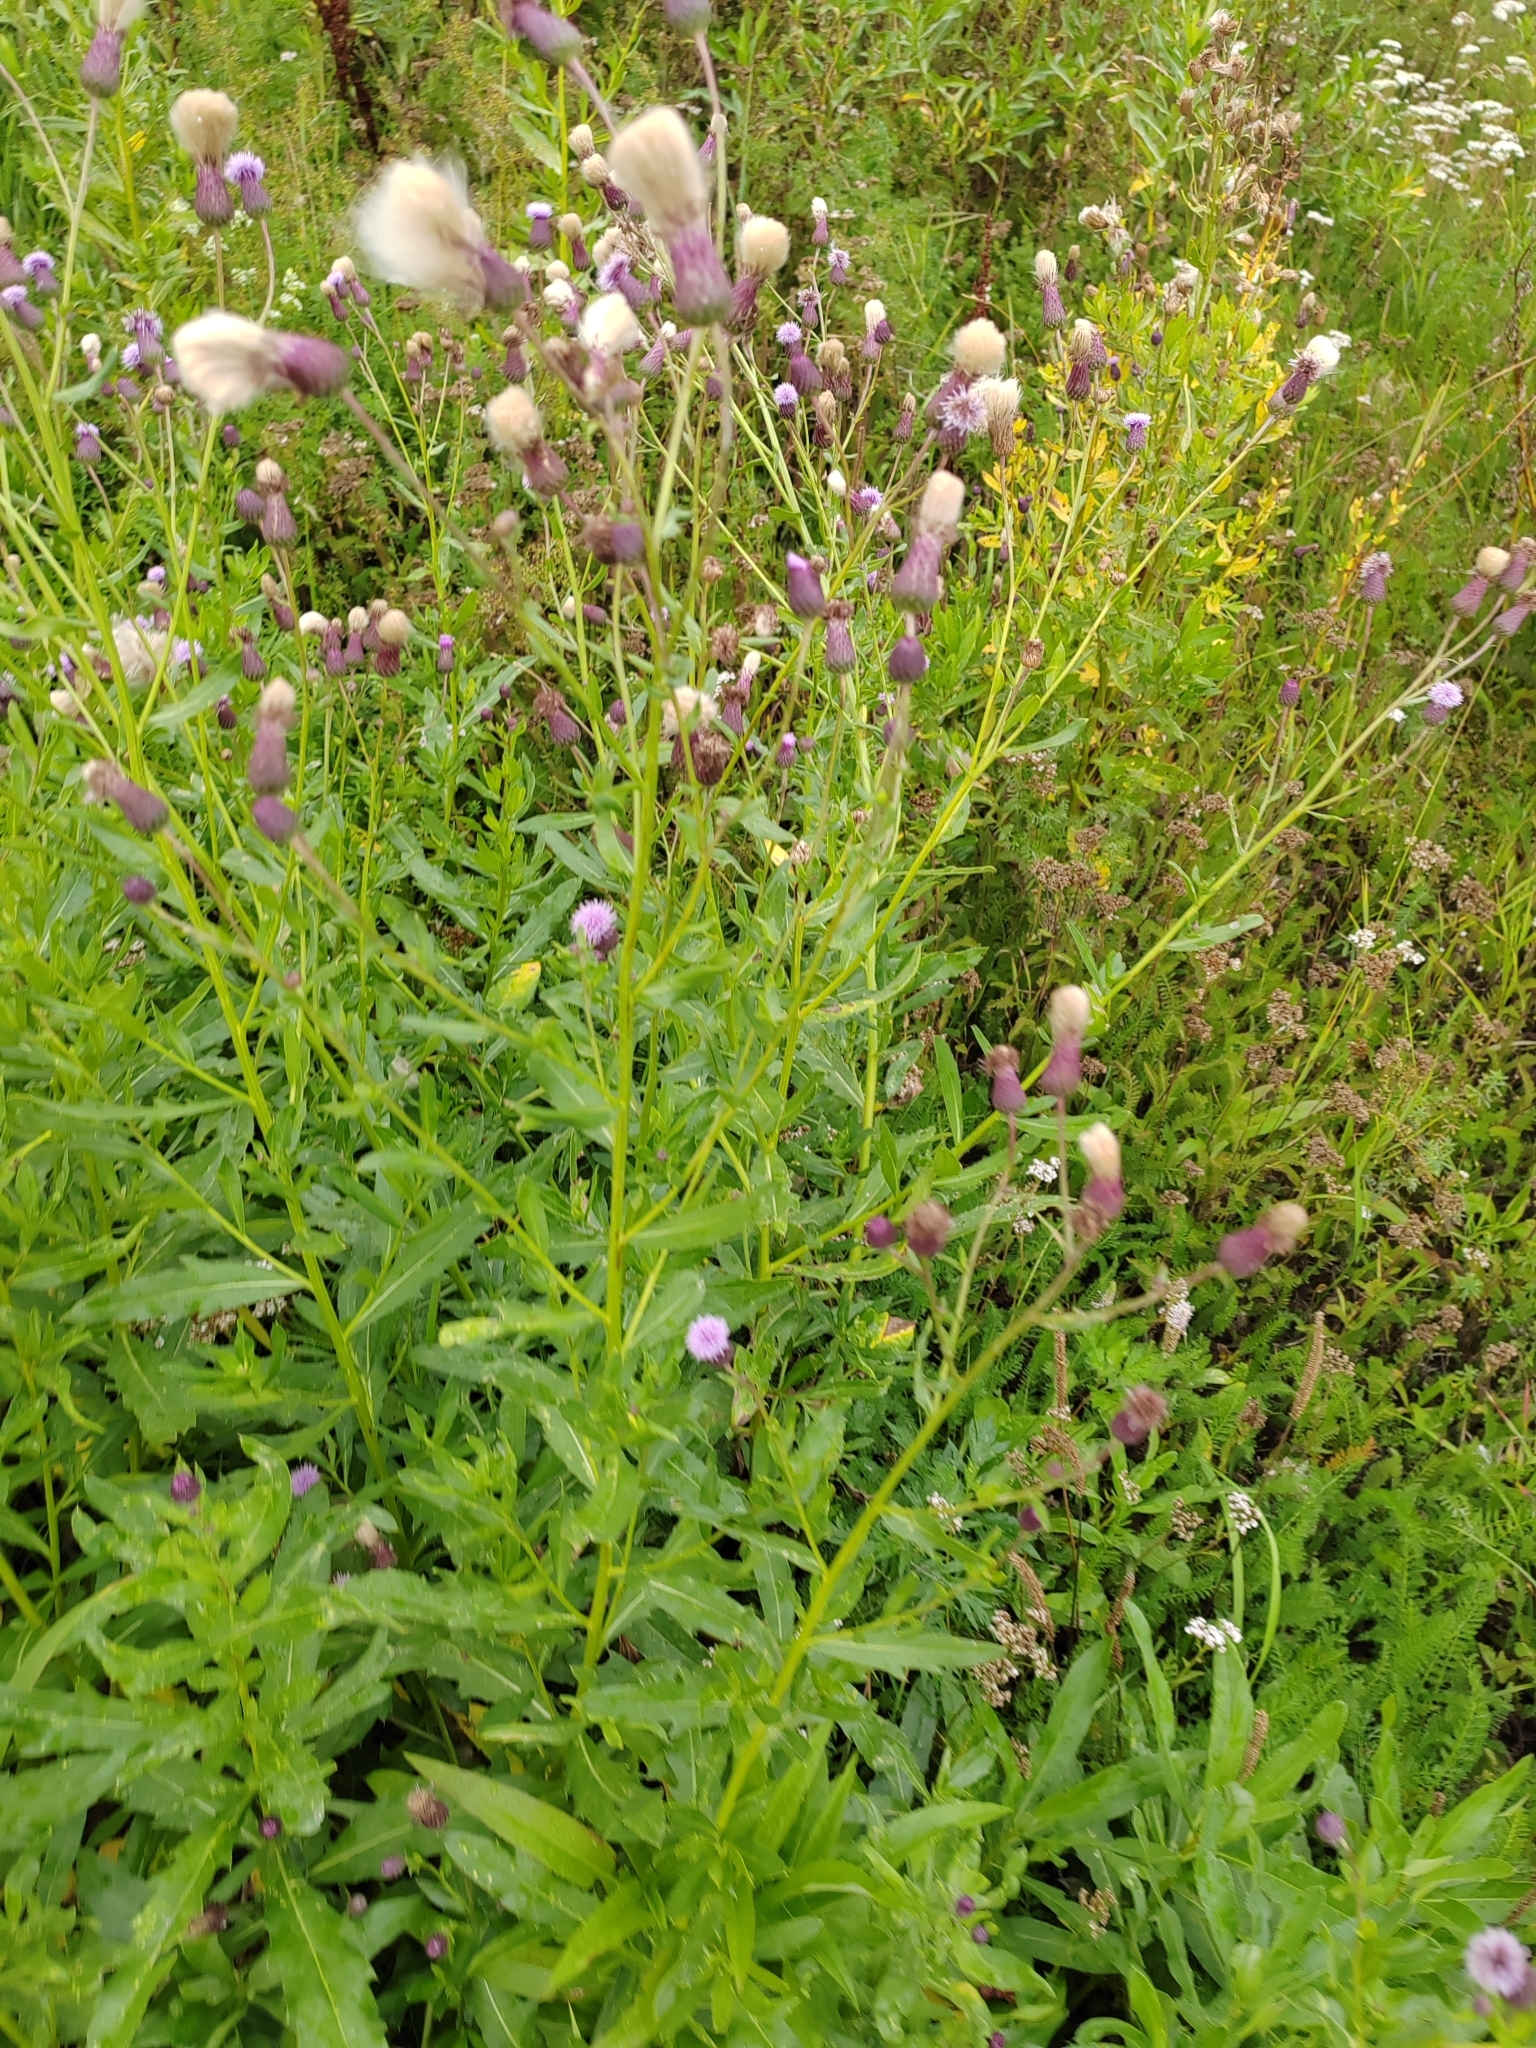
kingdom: Plantae
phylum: Tracheophyta
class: Magnoliopsida
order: Asterales
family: Asteraceae
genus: Cirsium
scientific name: Cirsium arvense
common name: Creeping thistle
